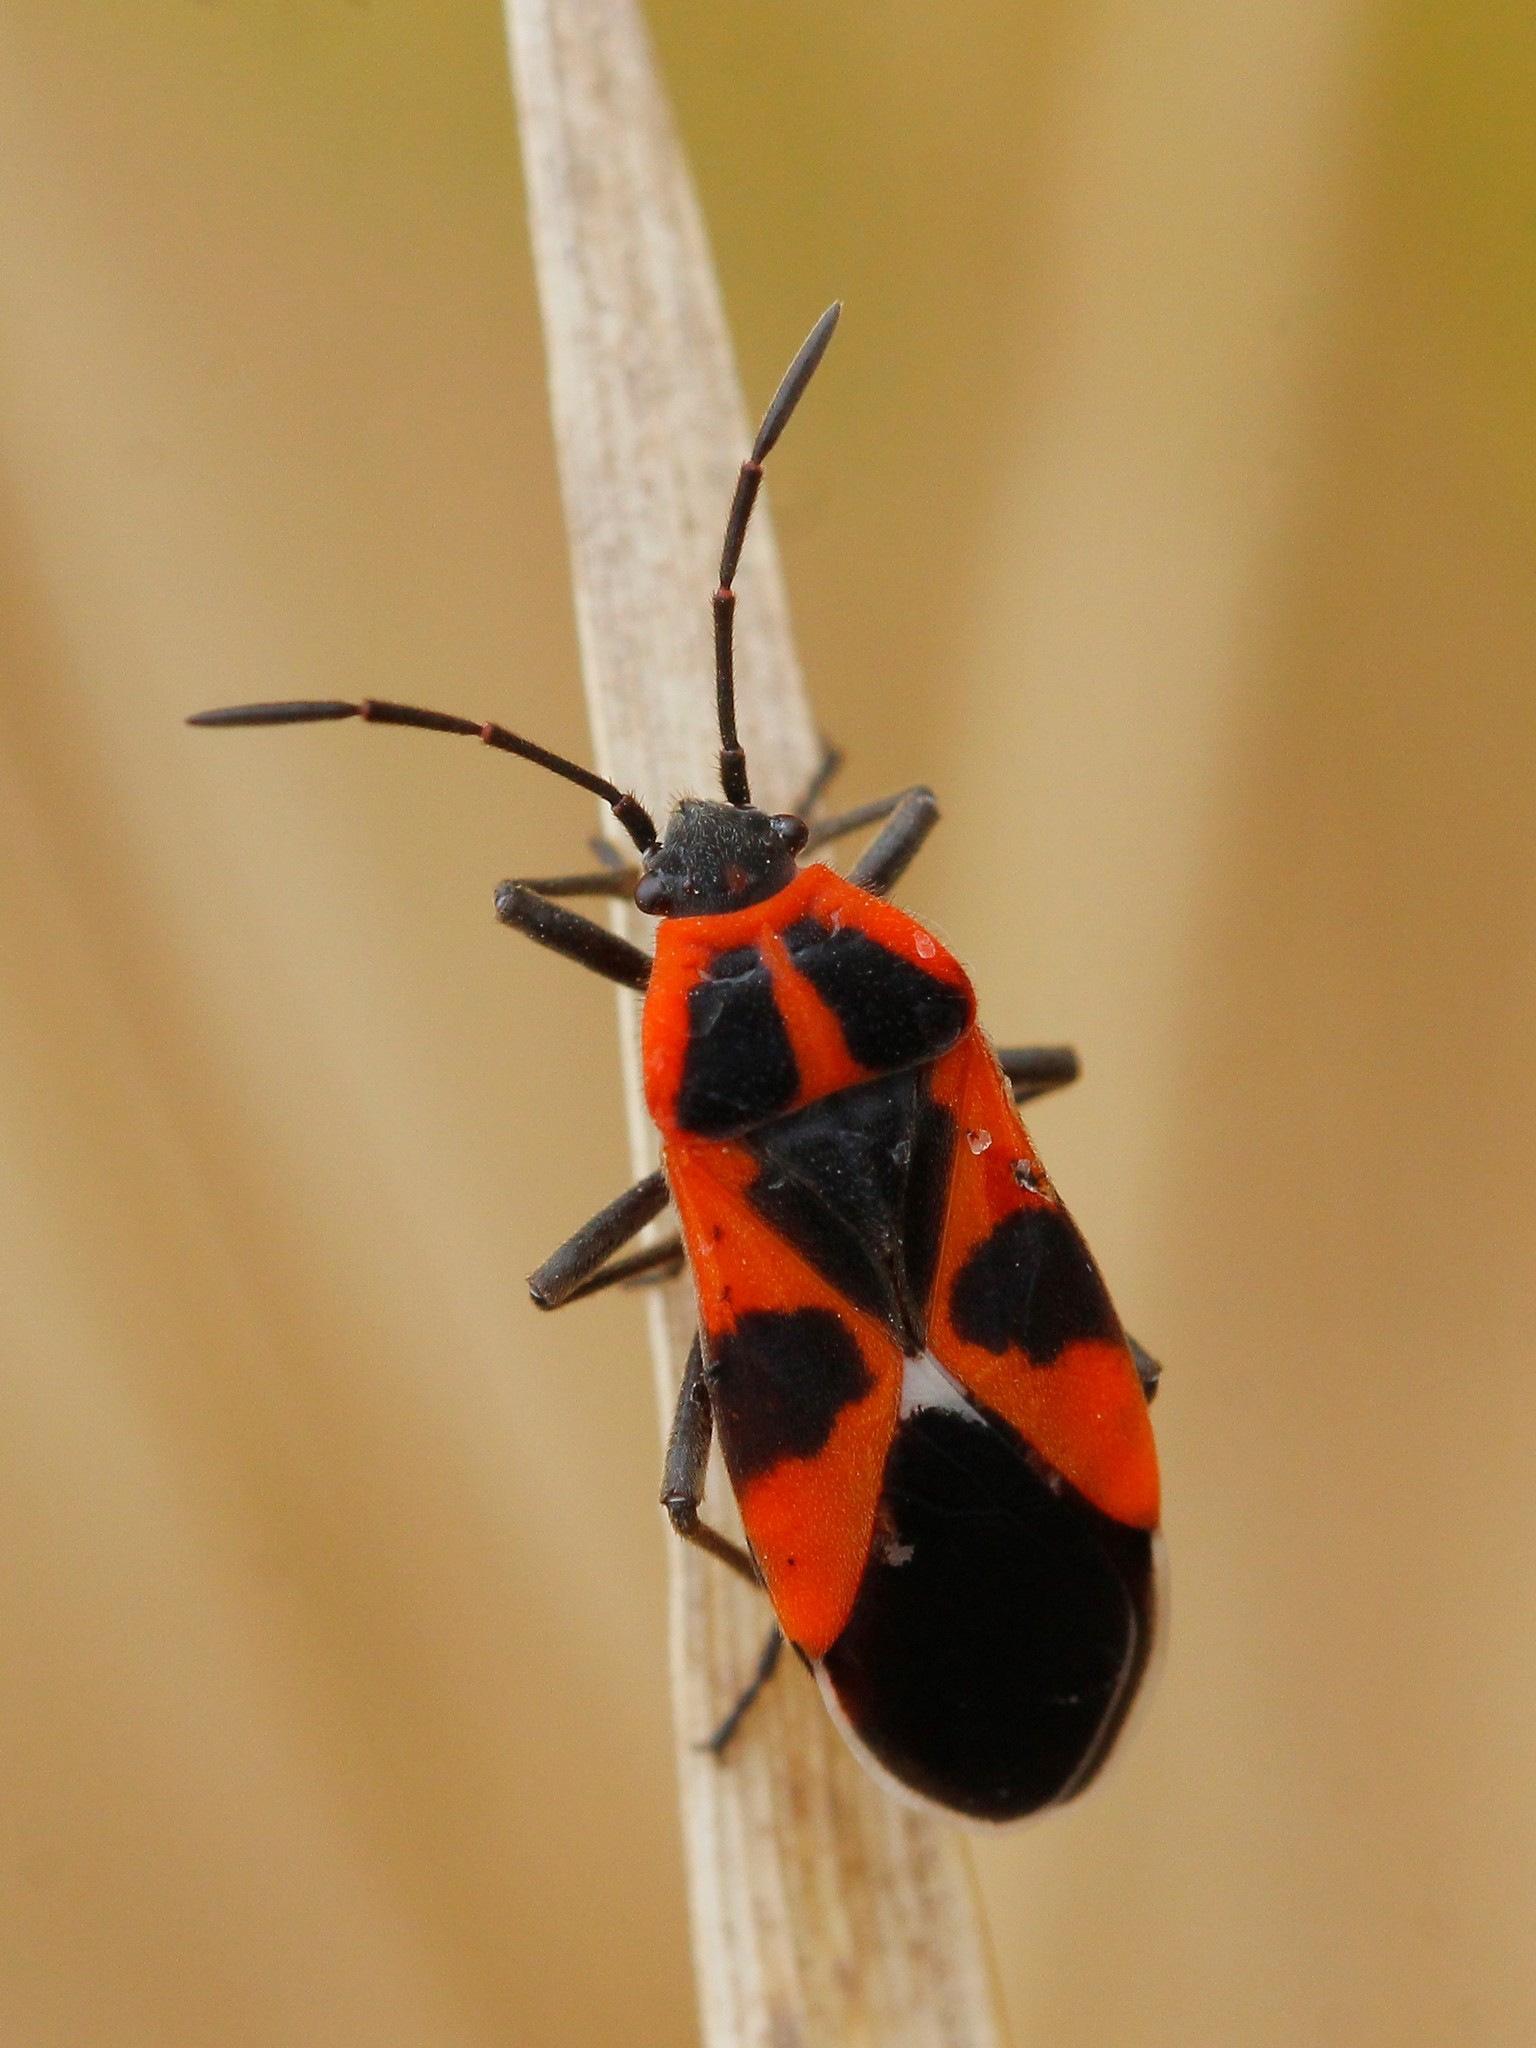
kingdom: Animalia
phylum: Arthropoda
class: Insecta
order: Hemiptera
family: Lygaeidae
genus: Tropidothorax
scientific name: Tropidothorax leucopterus
